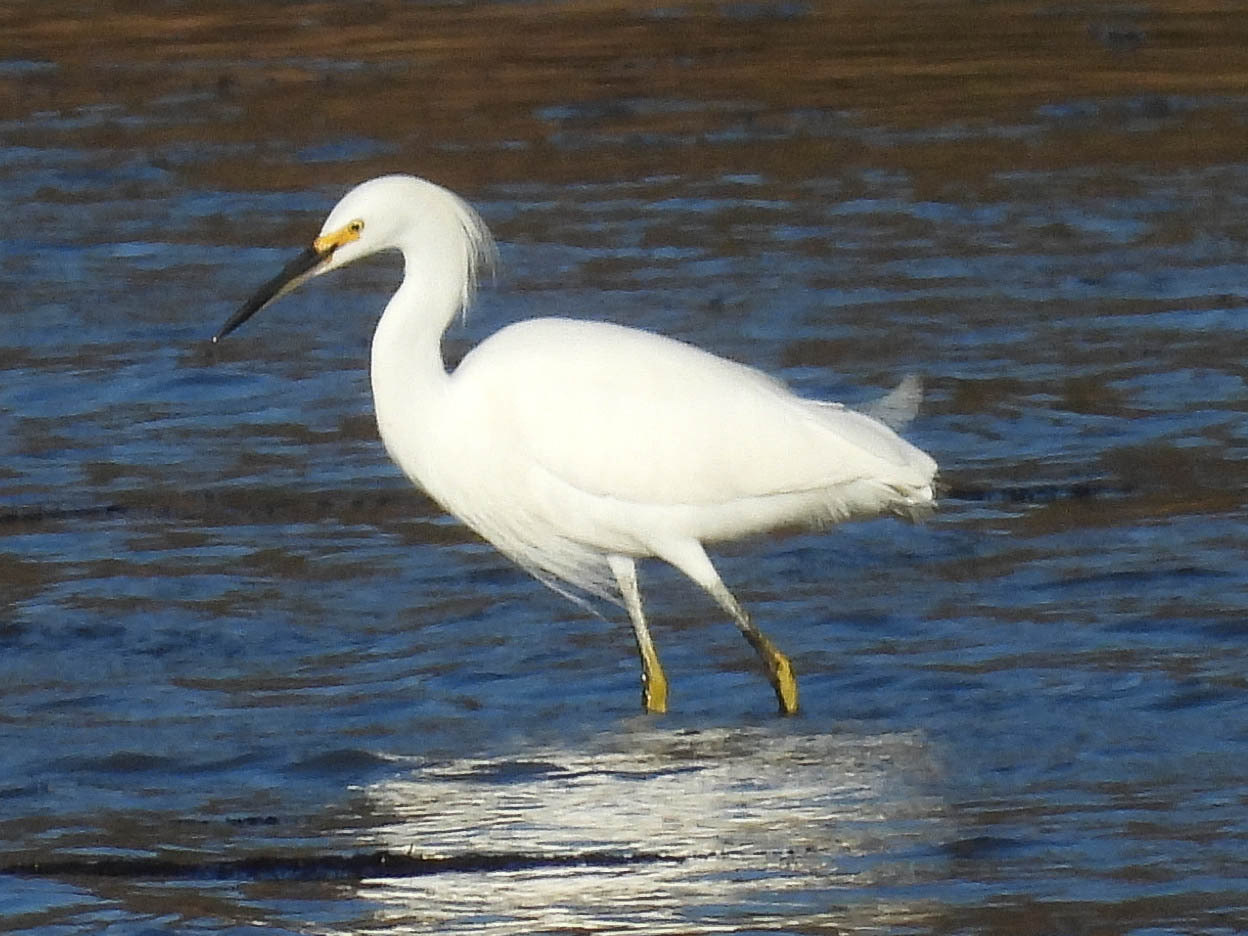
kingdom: Animalia
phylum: Chordata
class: Aves
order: Pelecaniformes
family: Ardeidae
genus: Egretta
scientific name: Egretta thula
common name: Snowy egret
